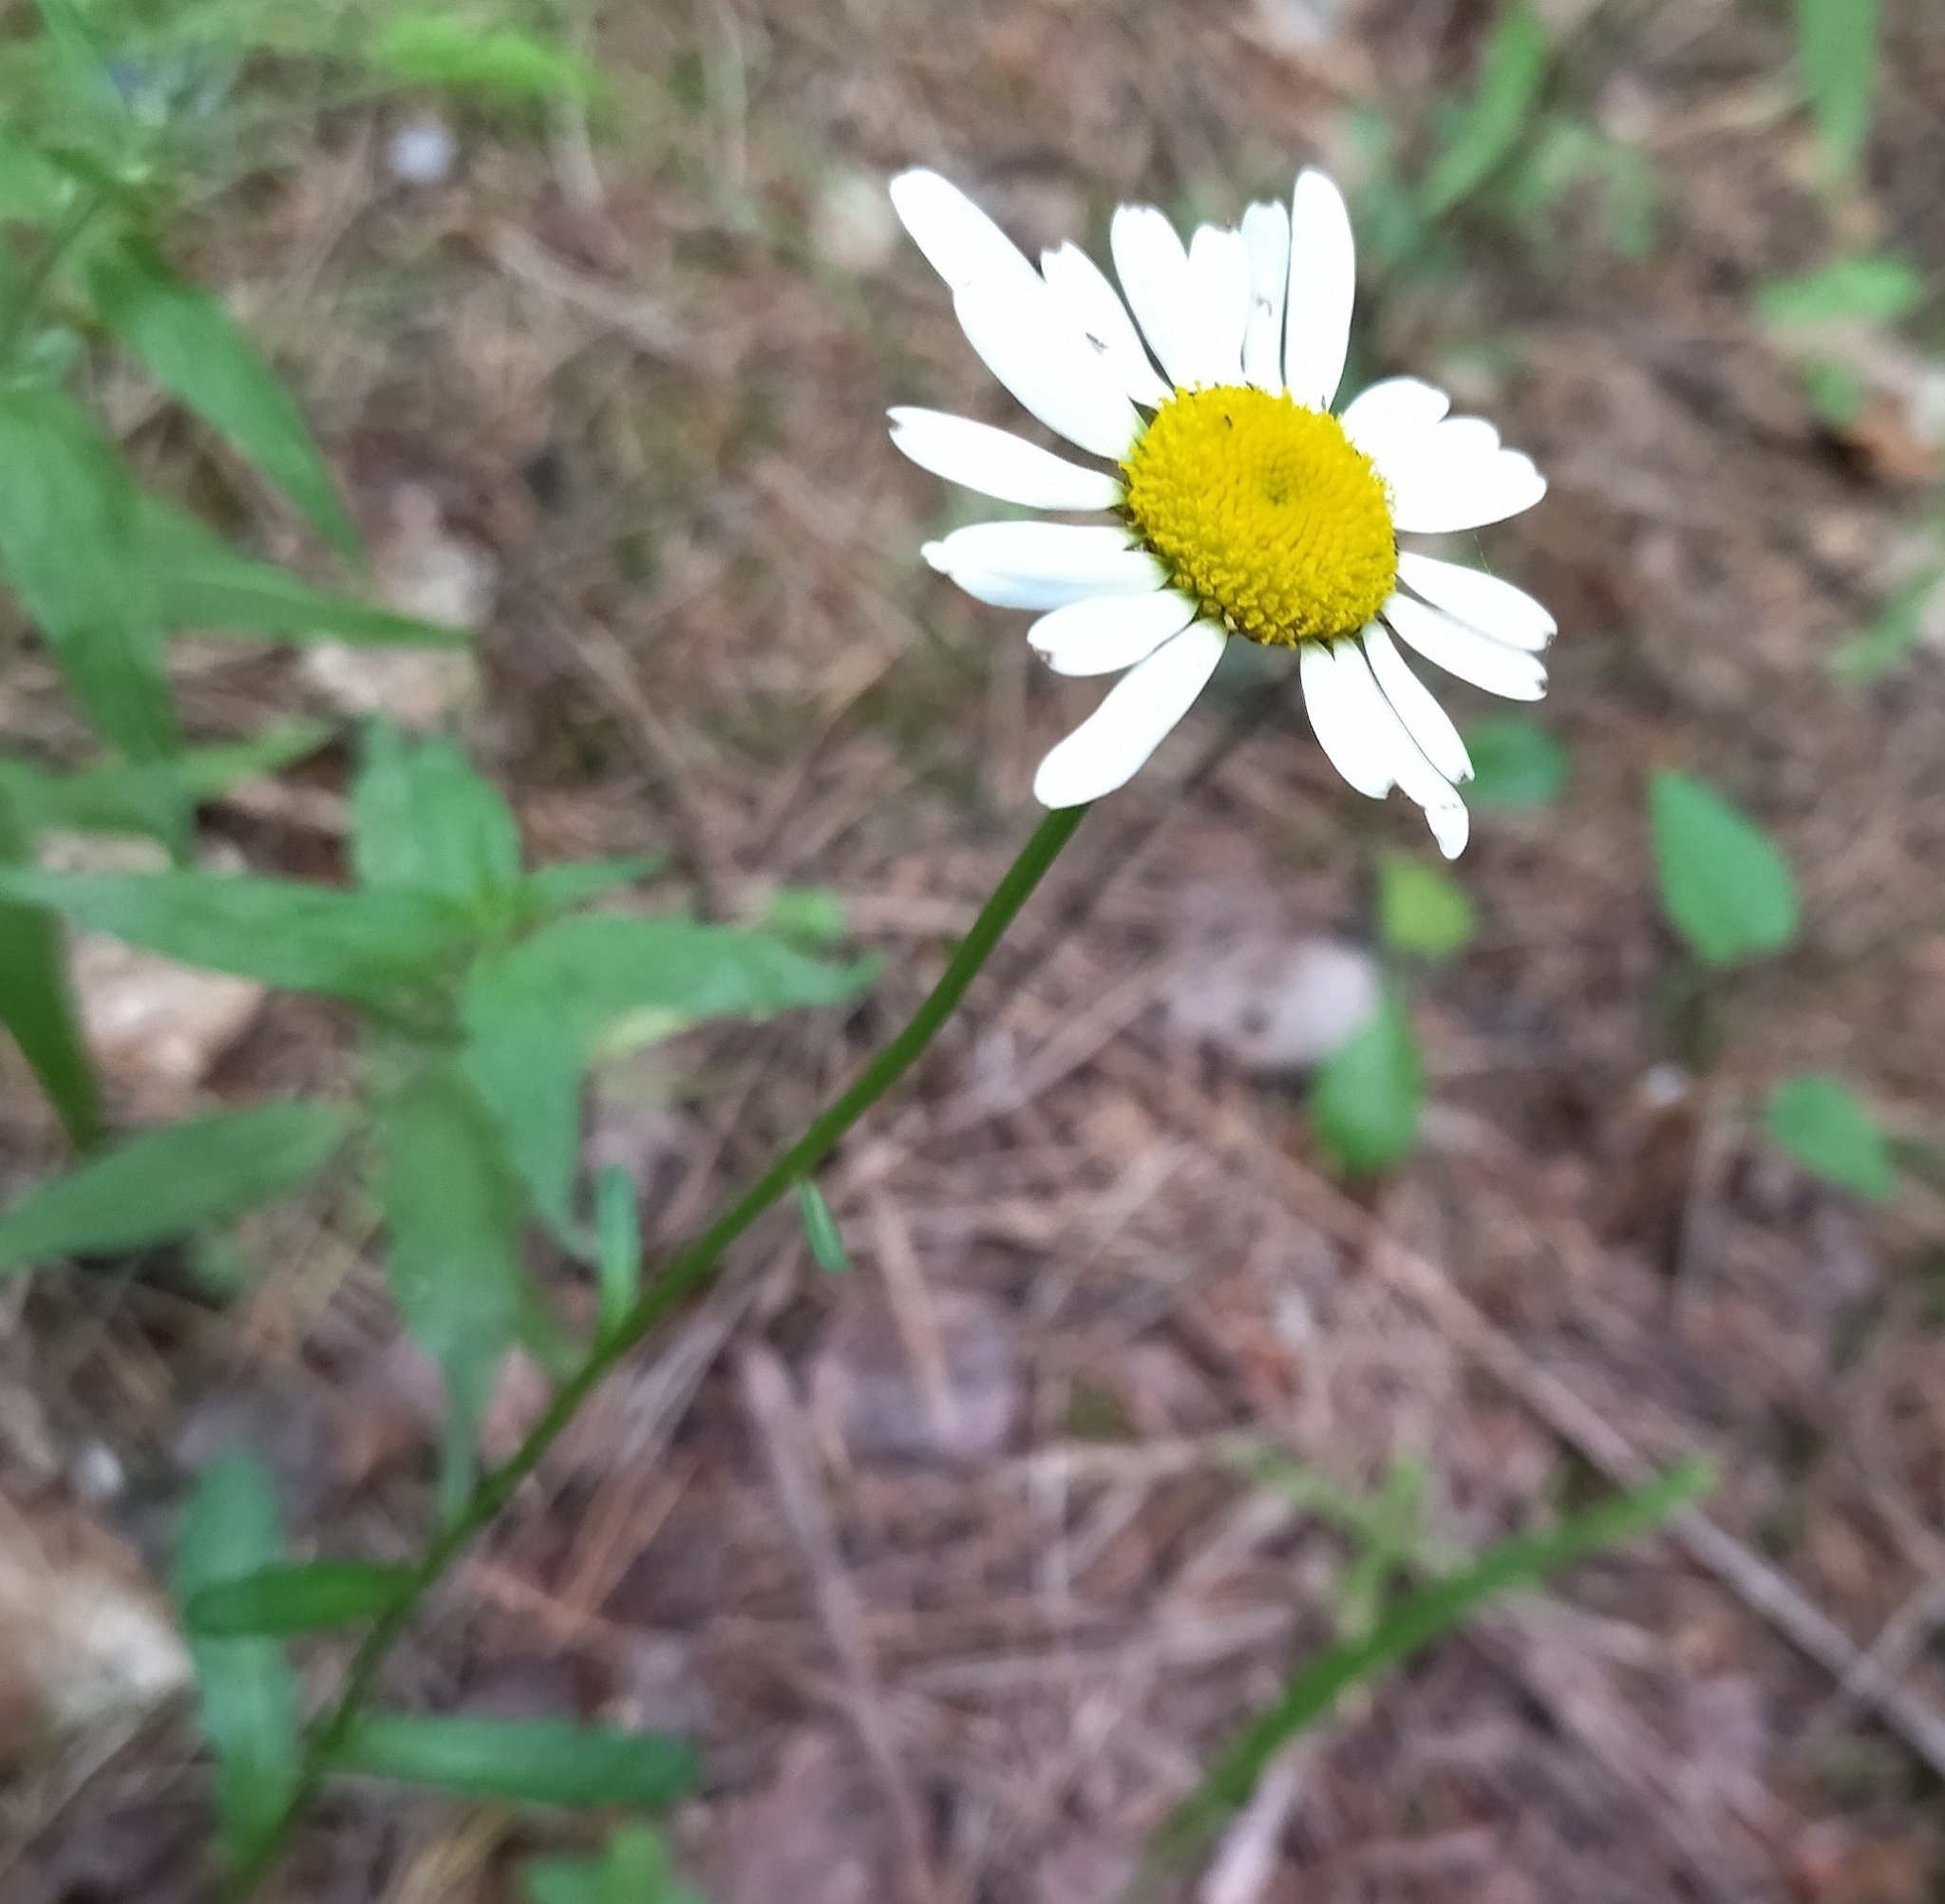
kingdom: Plantae
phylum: Tracheophyta
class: Magnoliopsida
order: Asterales
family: Asteraceae
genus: Leucanthemum
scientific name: Leucanthemum vulgare
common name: Oxeye daisy
